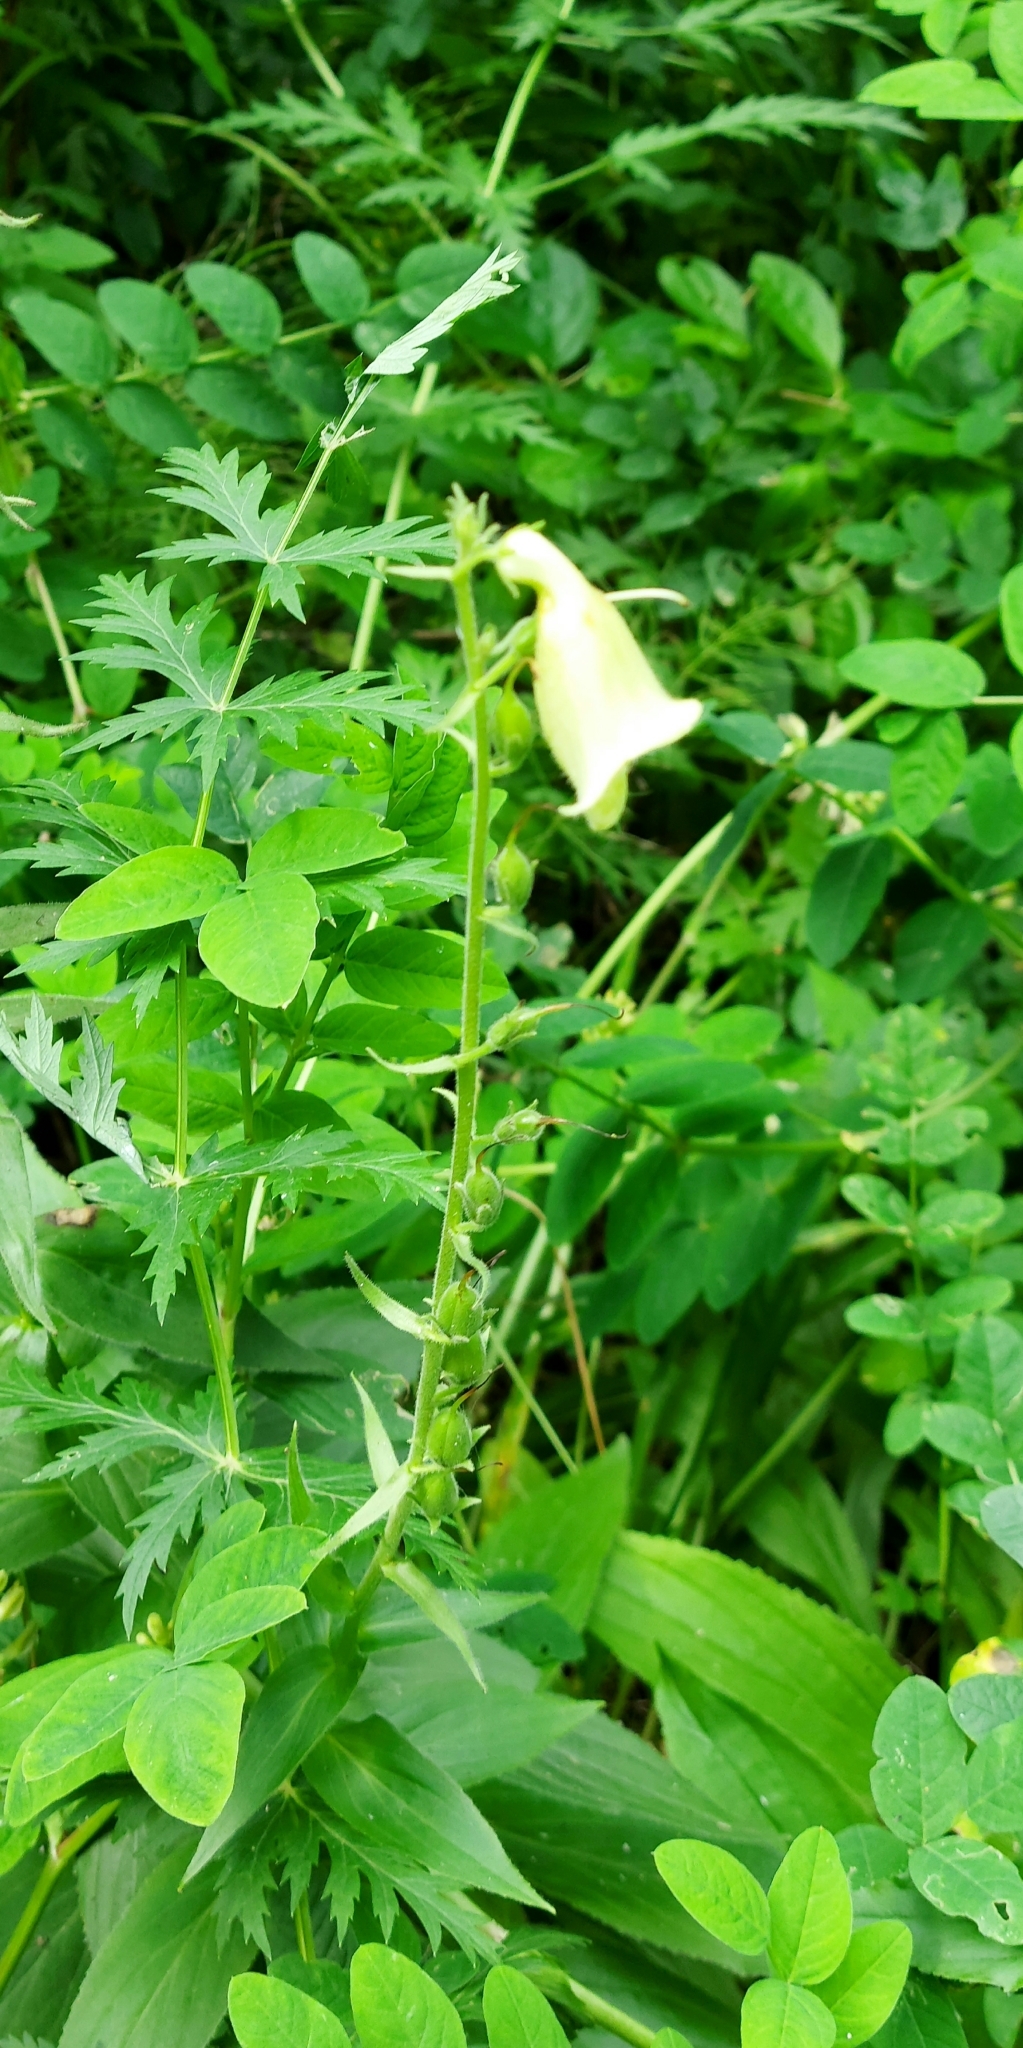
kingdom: Plantae
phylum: Tracheophyta
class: Magnoliopsida
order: Lamiales
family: Plantaginaceae
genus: Digitalis
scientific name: Digitalis grandiflora
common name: Yellow foxglove
